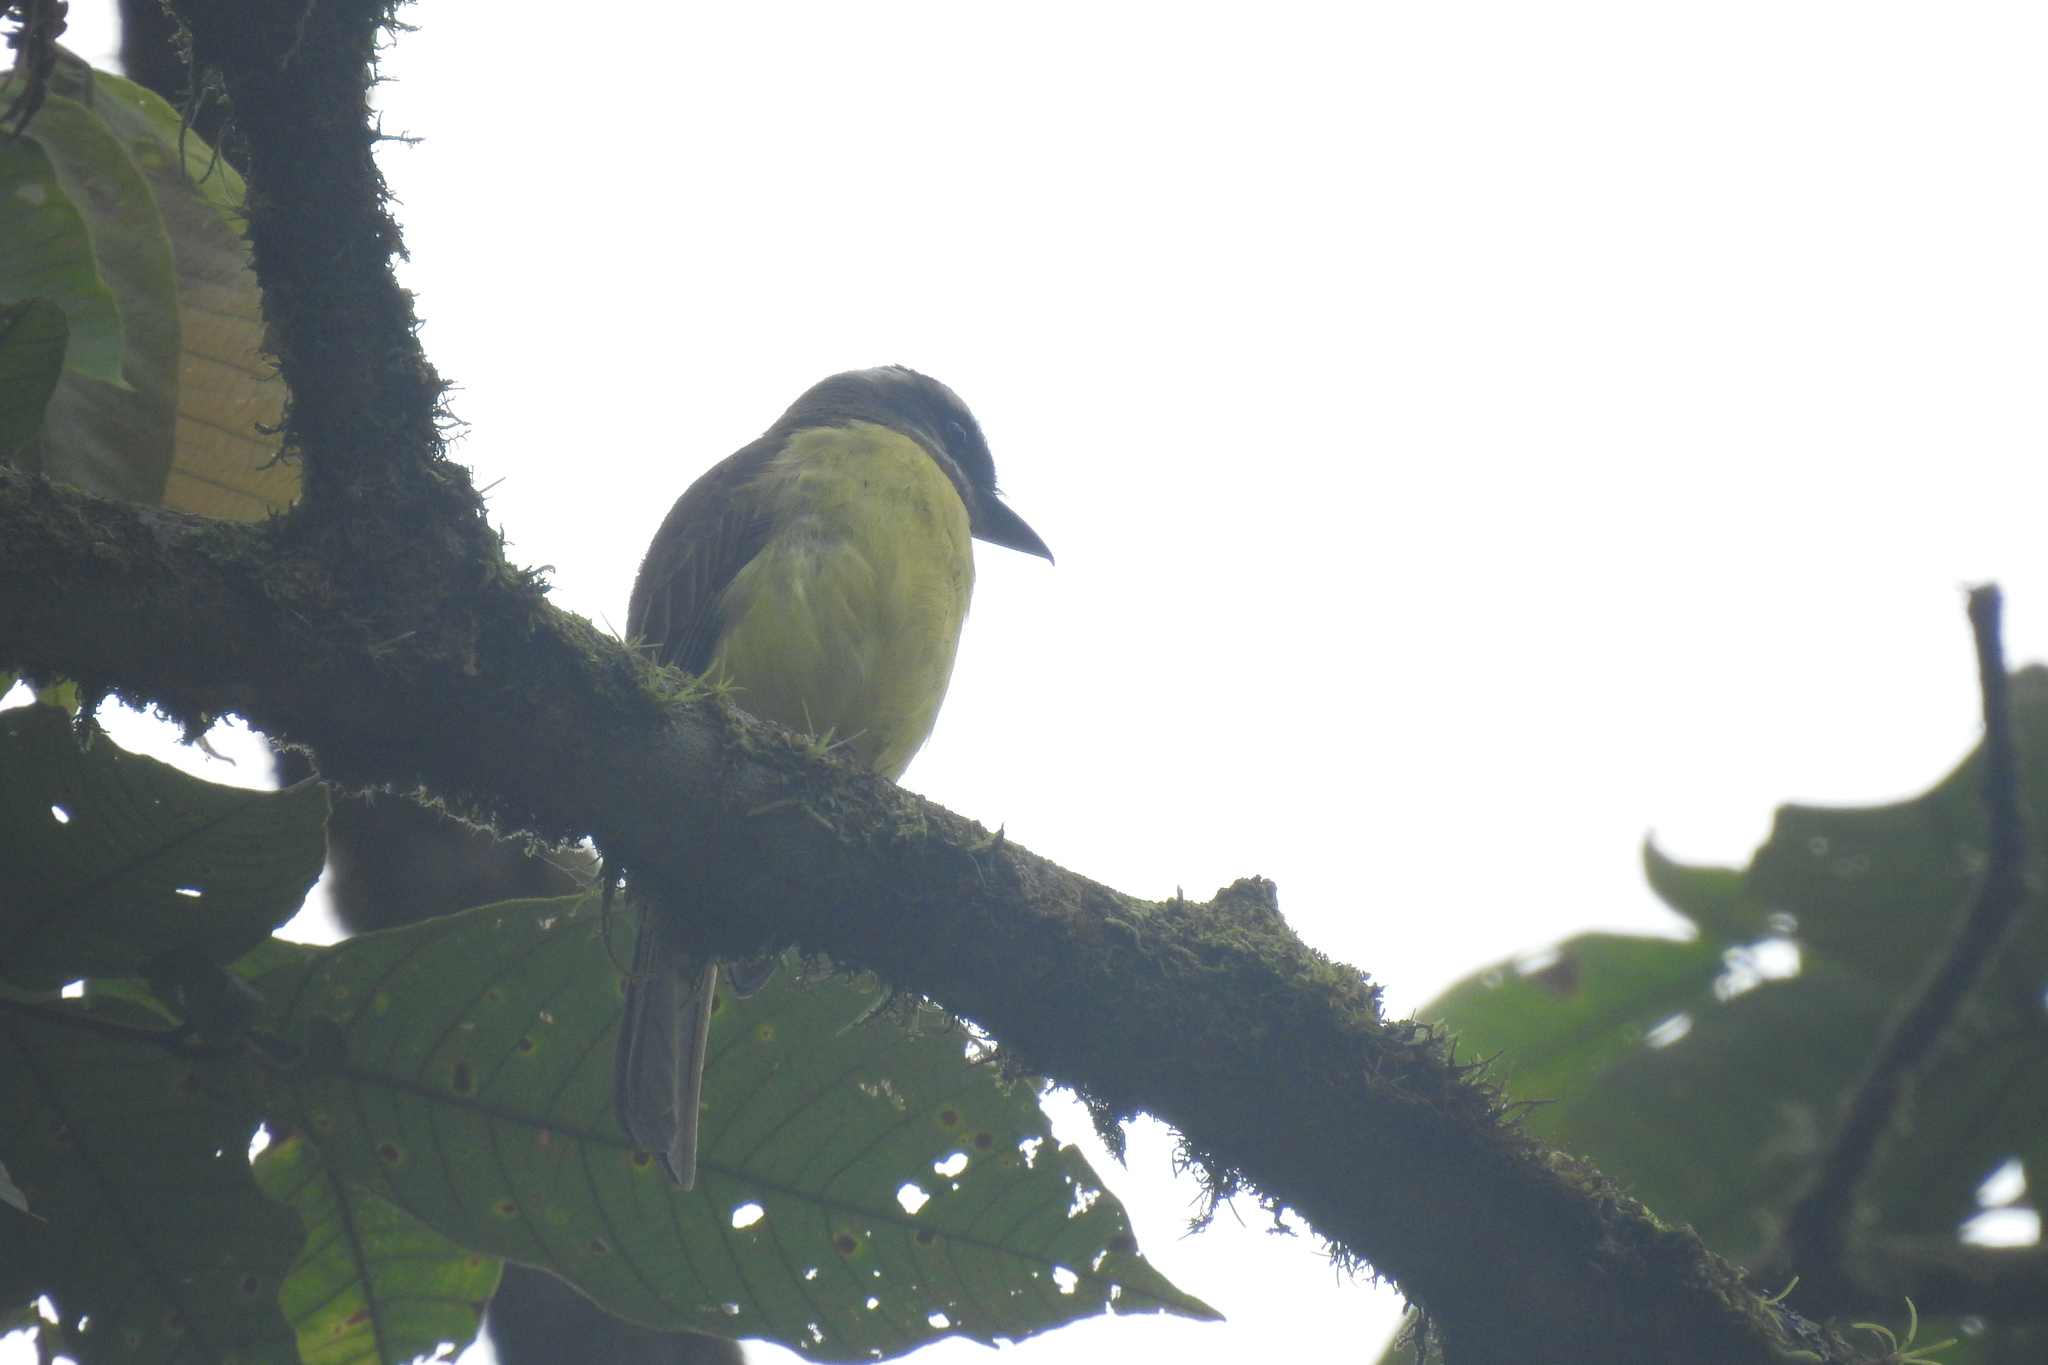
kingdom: Animalia
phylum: Chordata
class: Aves
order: Passeriformes
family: Tyrannidae
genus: Myiodynastes
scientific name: Myiodynastes hemichrysus
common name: Golden-bellied flycatcher
